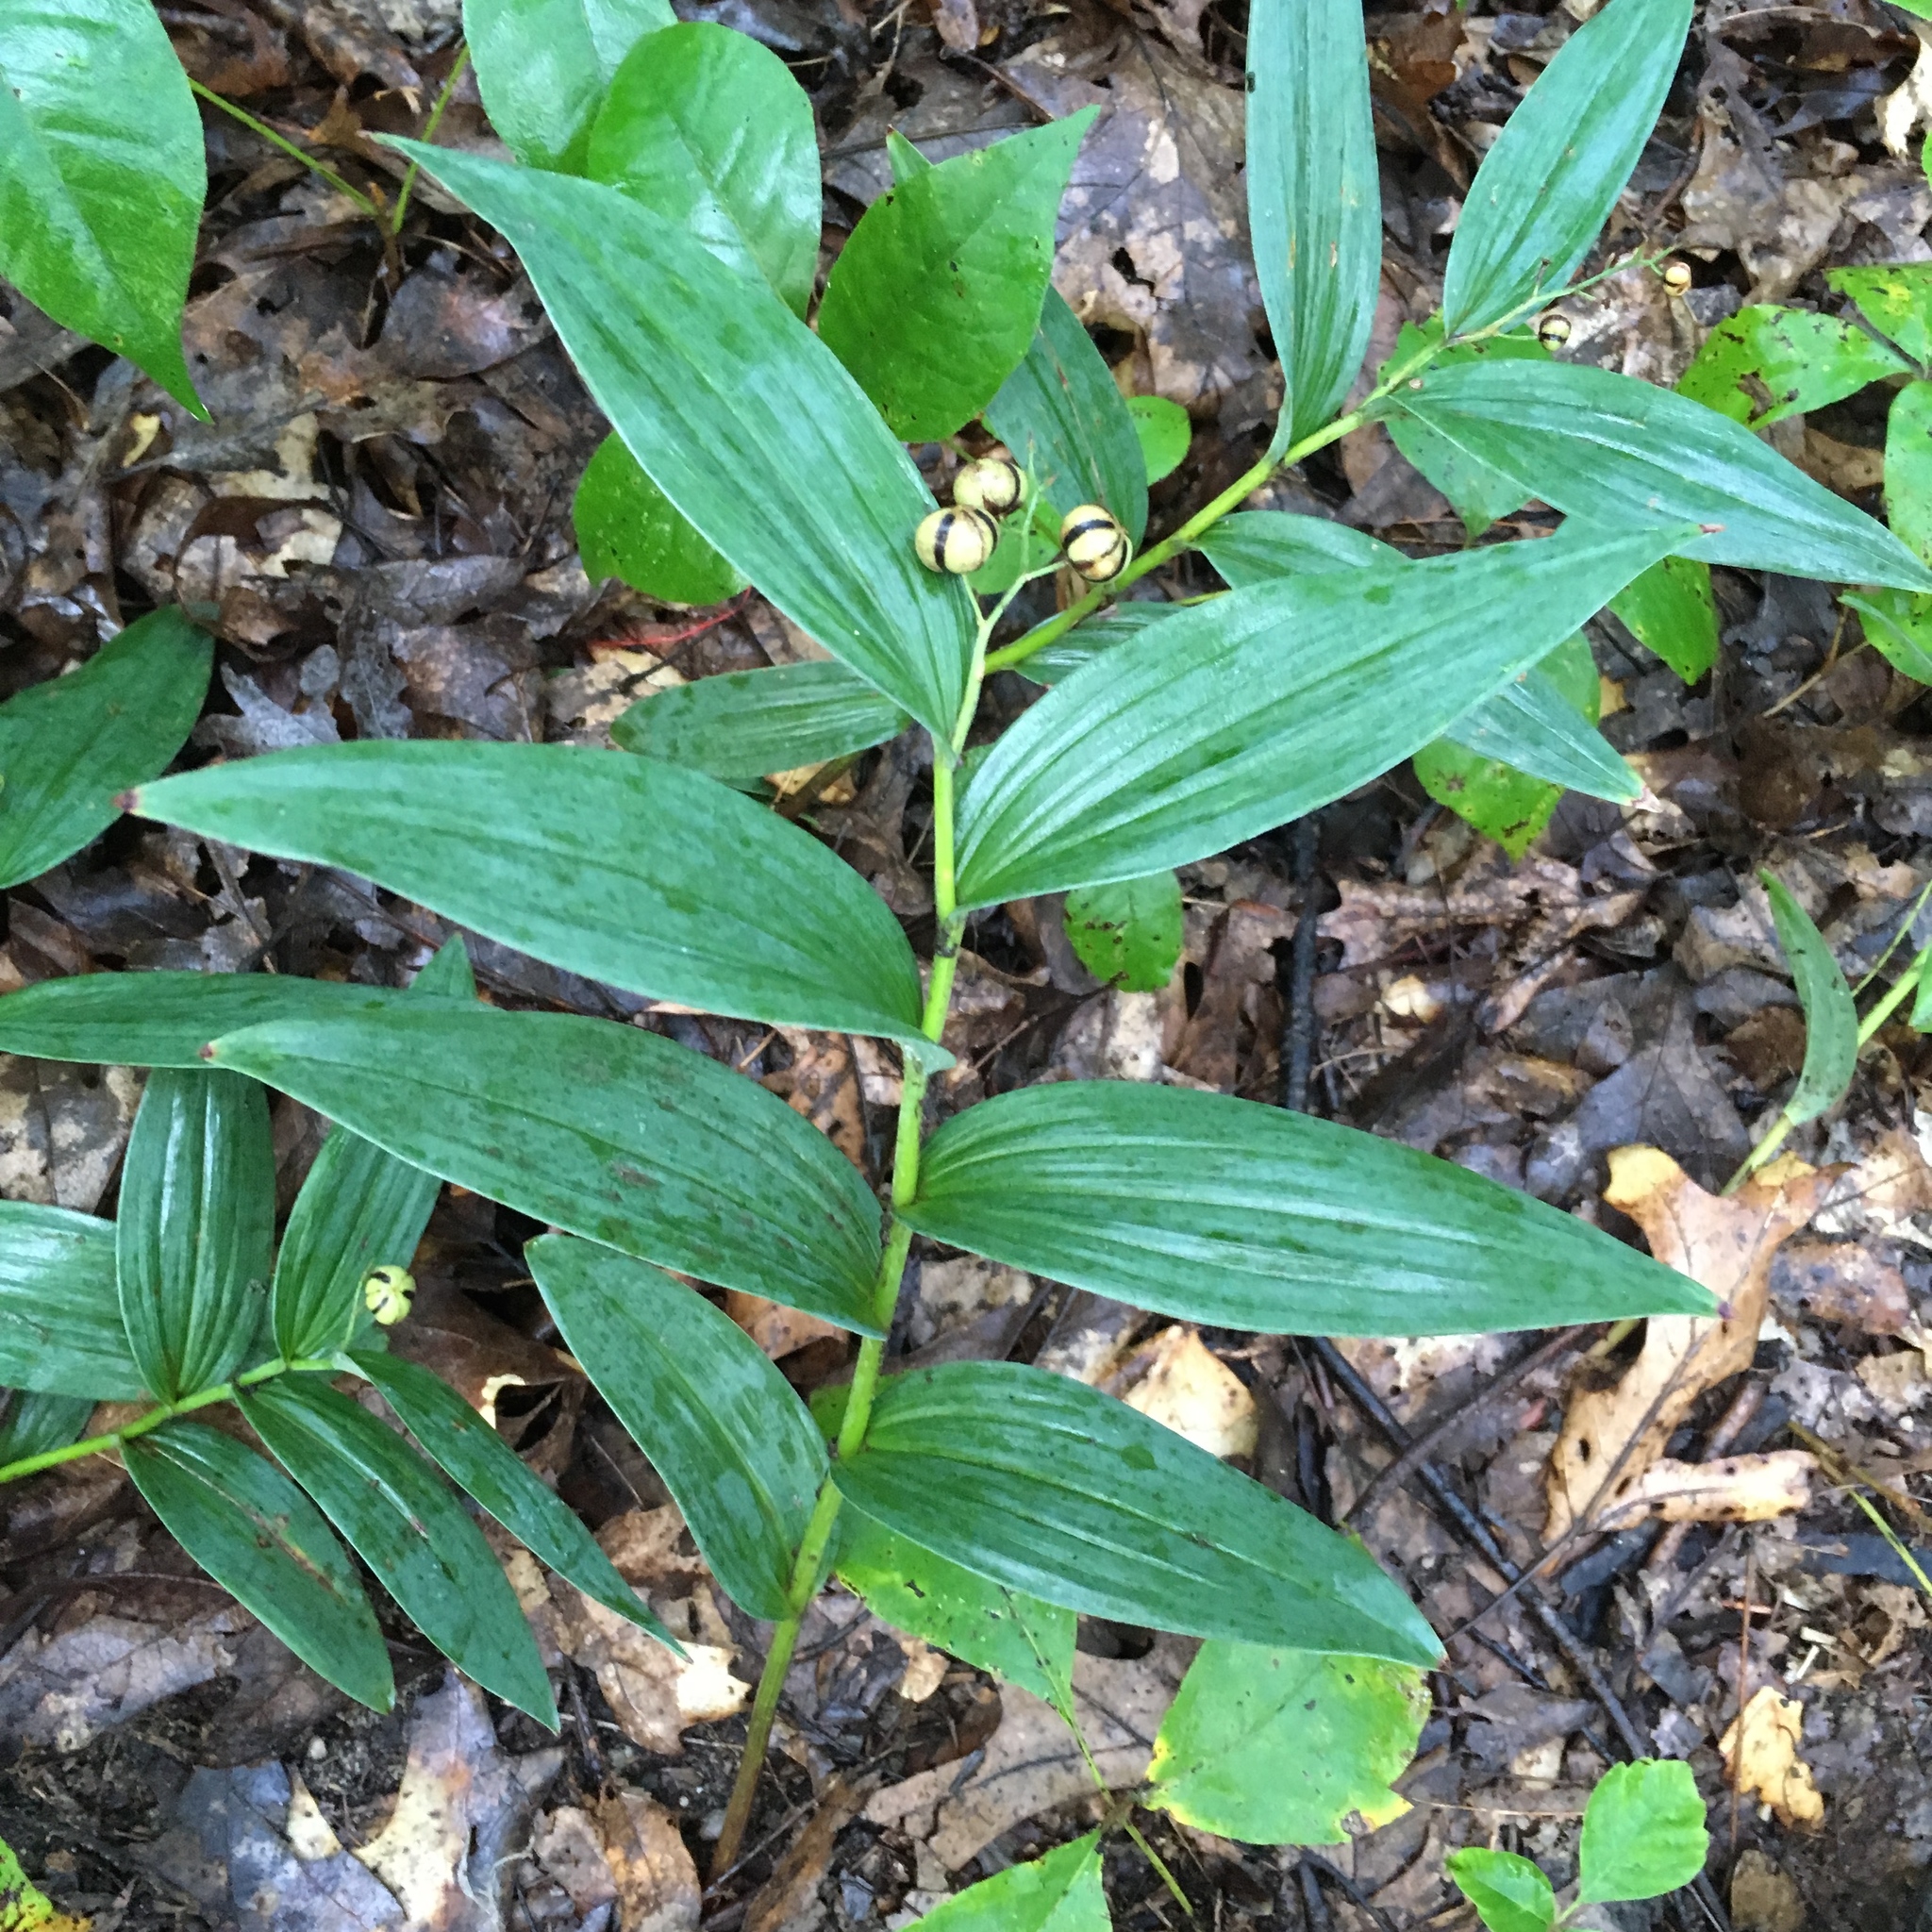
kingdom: Plantae
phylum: Tracheophyta
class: Liliopsida
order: Asparagales
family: Asparagaceae
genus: Maianthemum
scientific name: Maianthemum stellatum
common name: Little false solomon's seal
